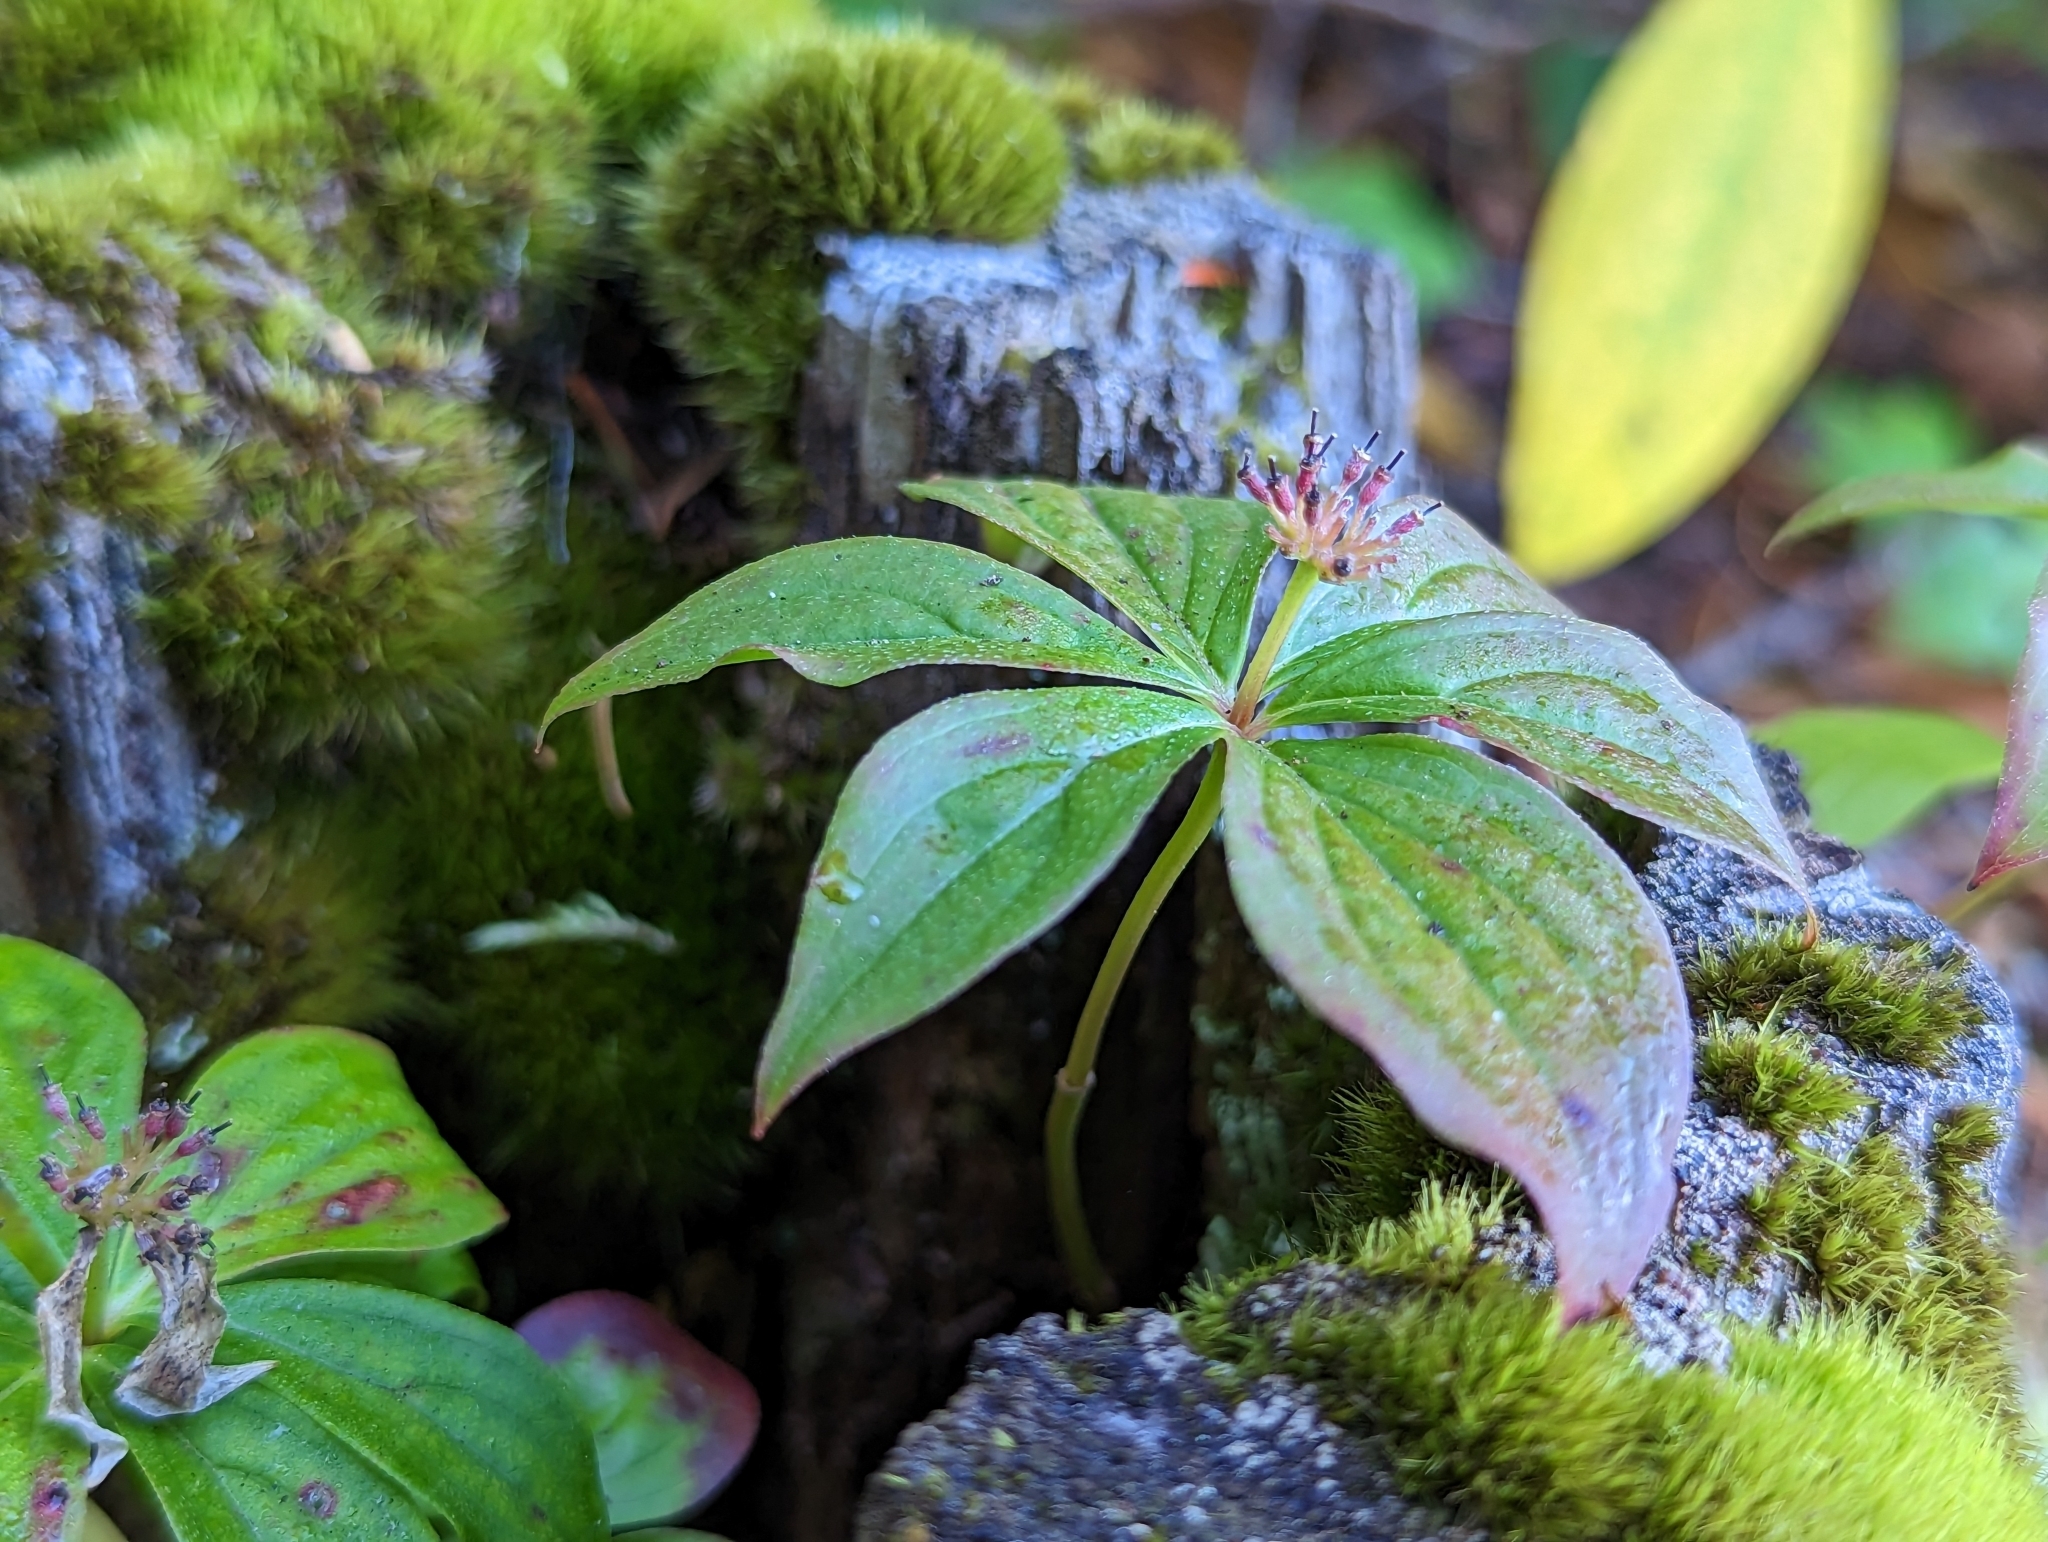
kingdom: Plantae
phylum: Tracheophyta
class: Magnoliopsida
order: Cornales
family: Cornaceae
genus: Cornus
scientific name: Cornus unalaschkensis
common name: Alaska bunchberry
